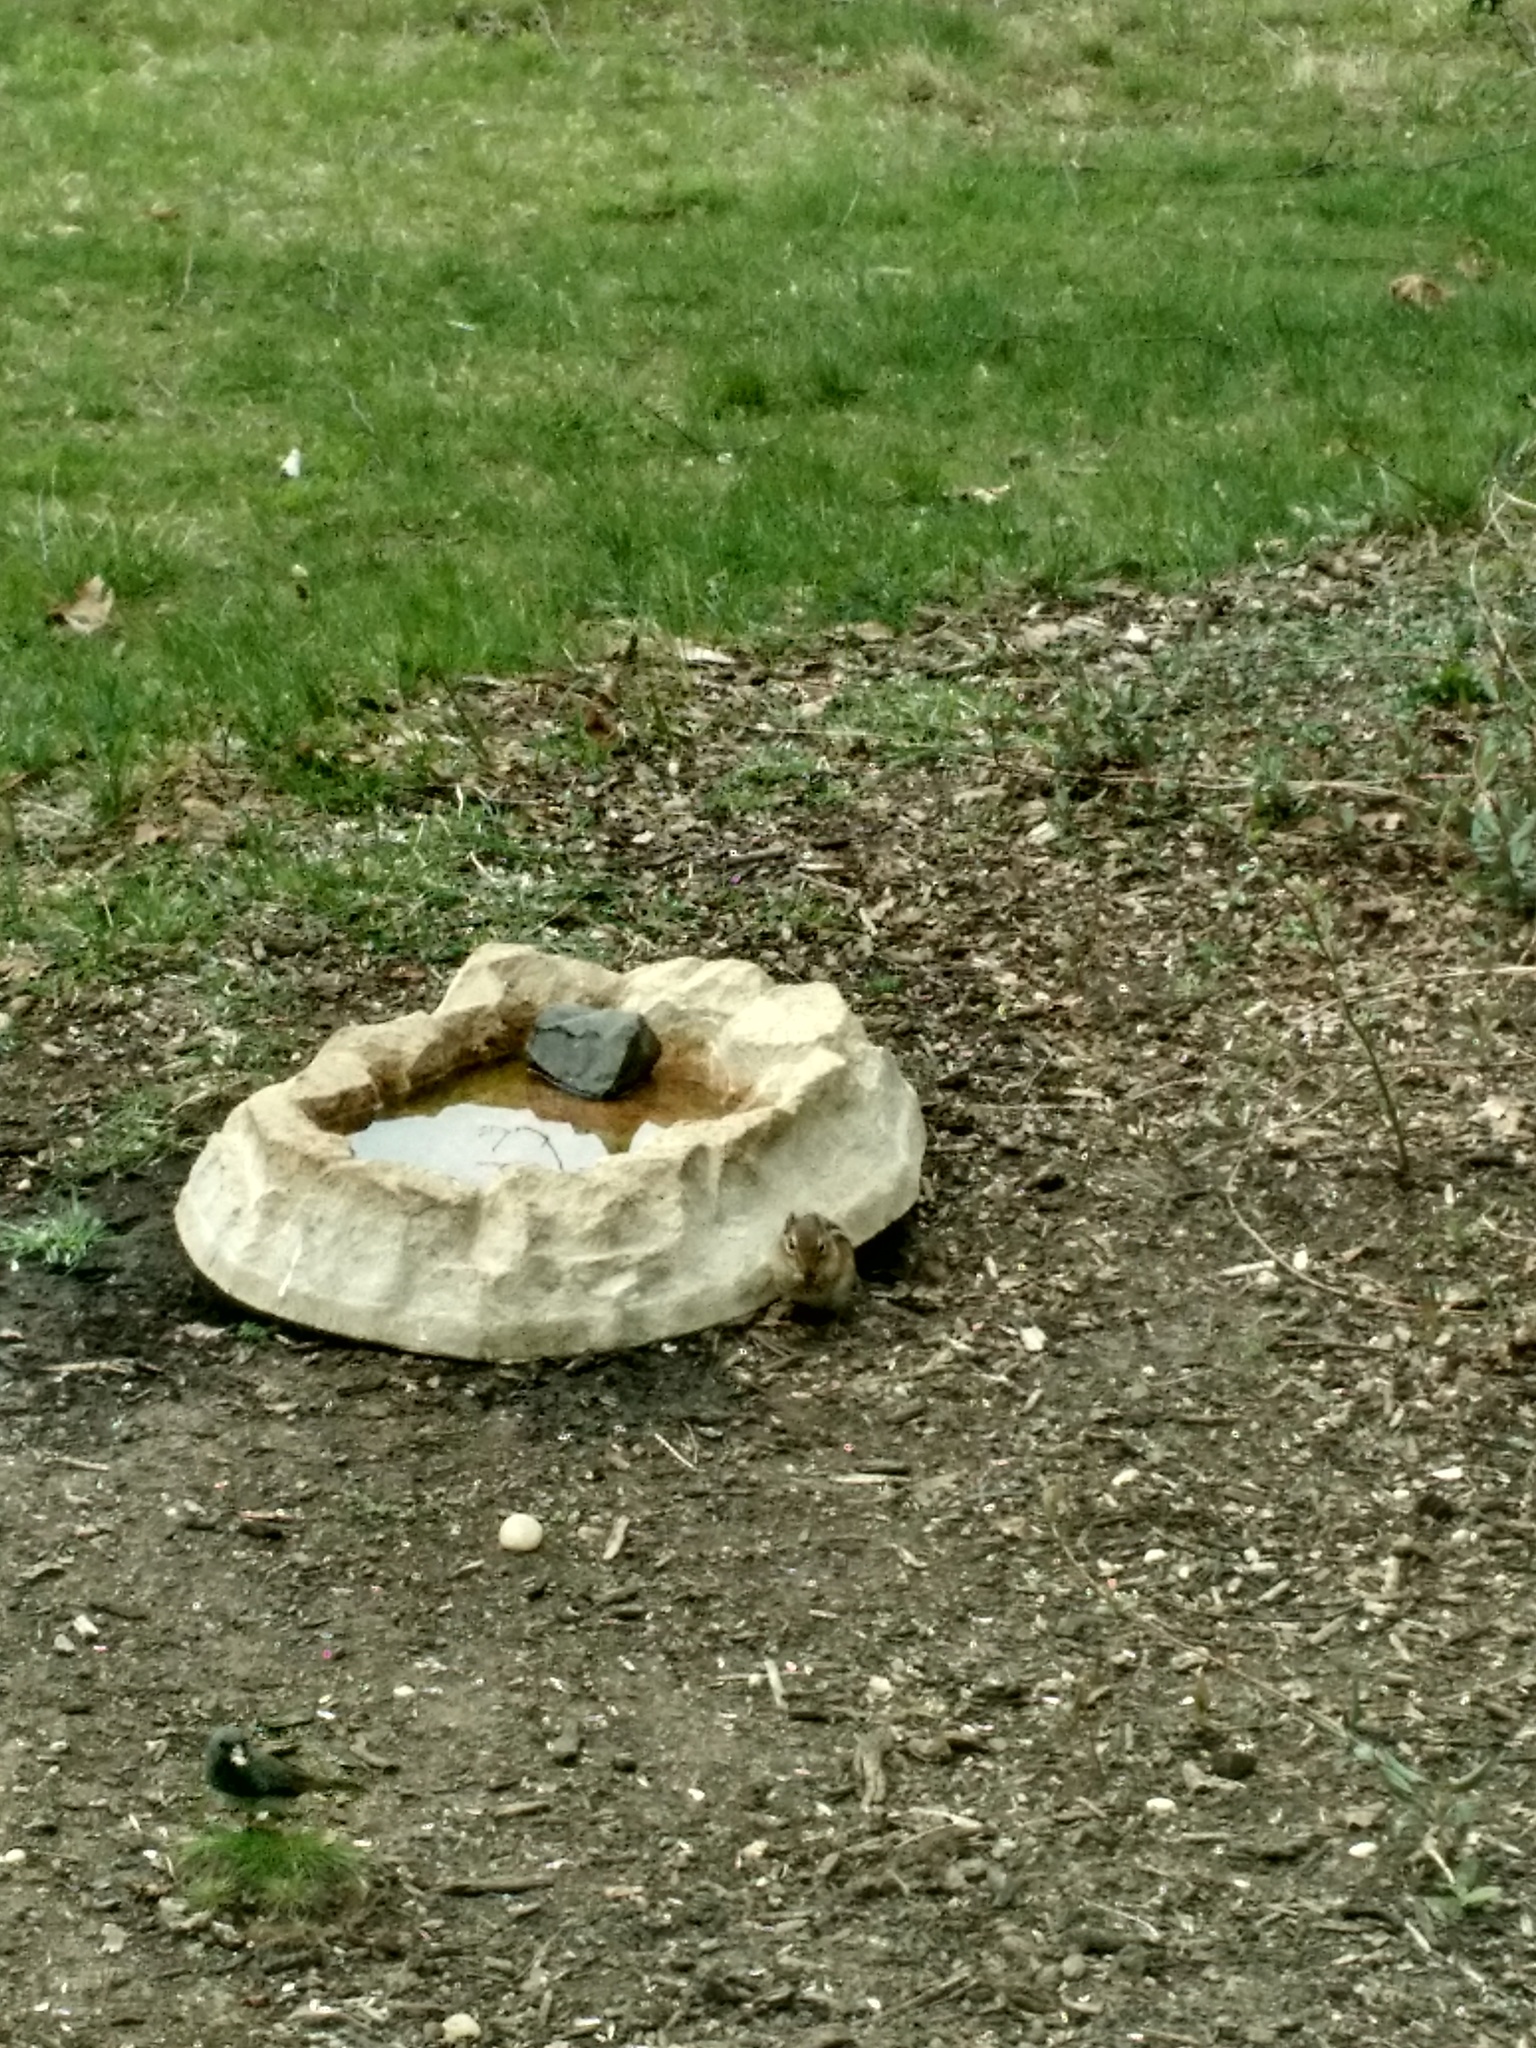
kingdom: Animalia
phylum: Chordata
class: Mammalia
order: Rodentia
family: Sciuridae
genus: Tamias
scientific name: Tamias striatus
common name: Eastern chipmunk
